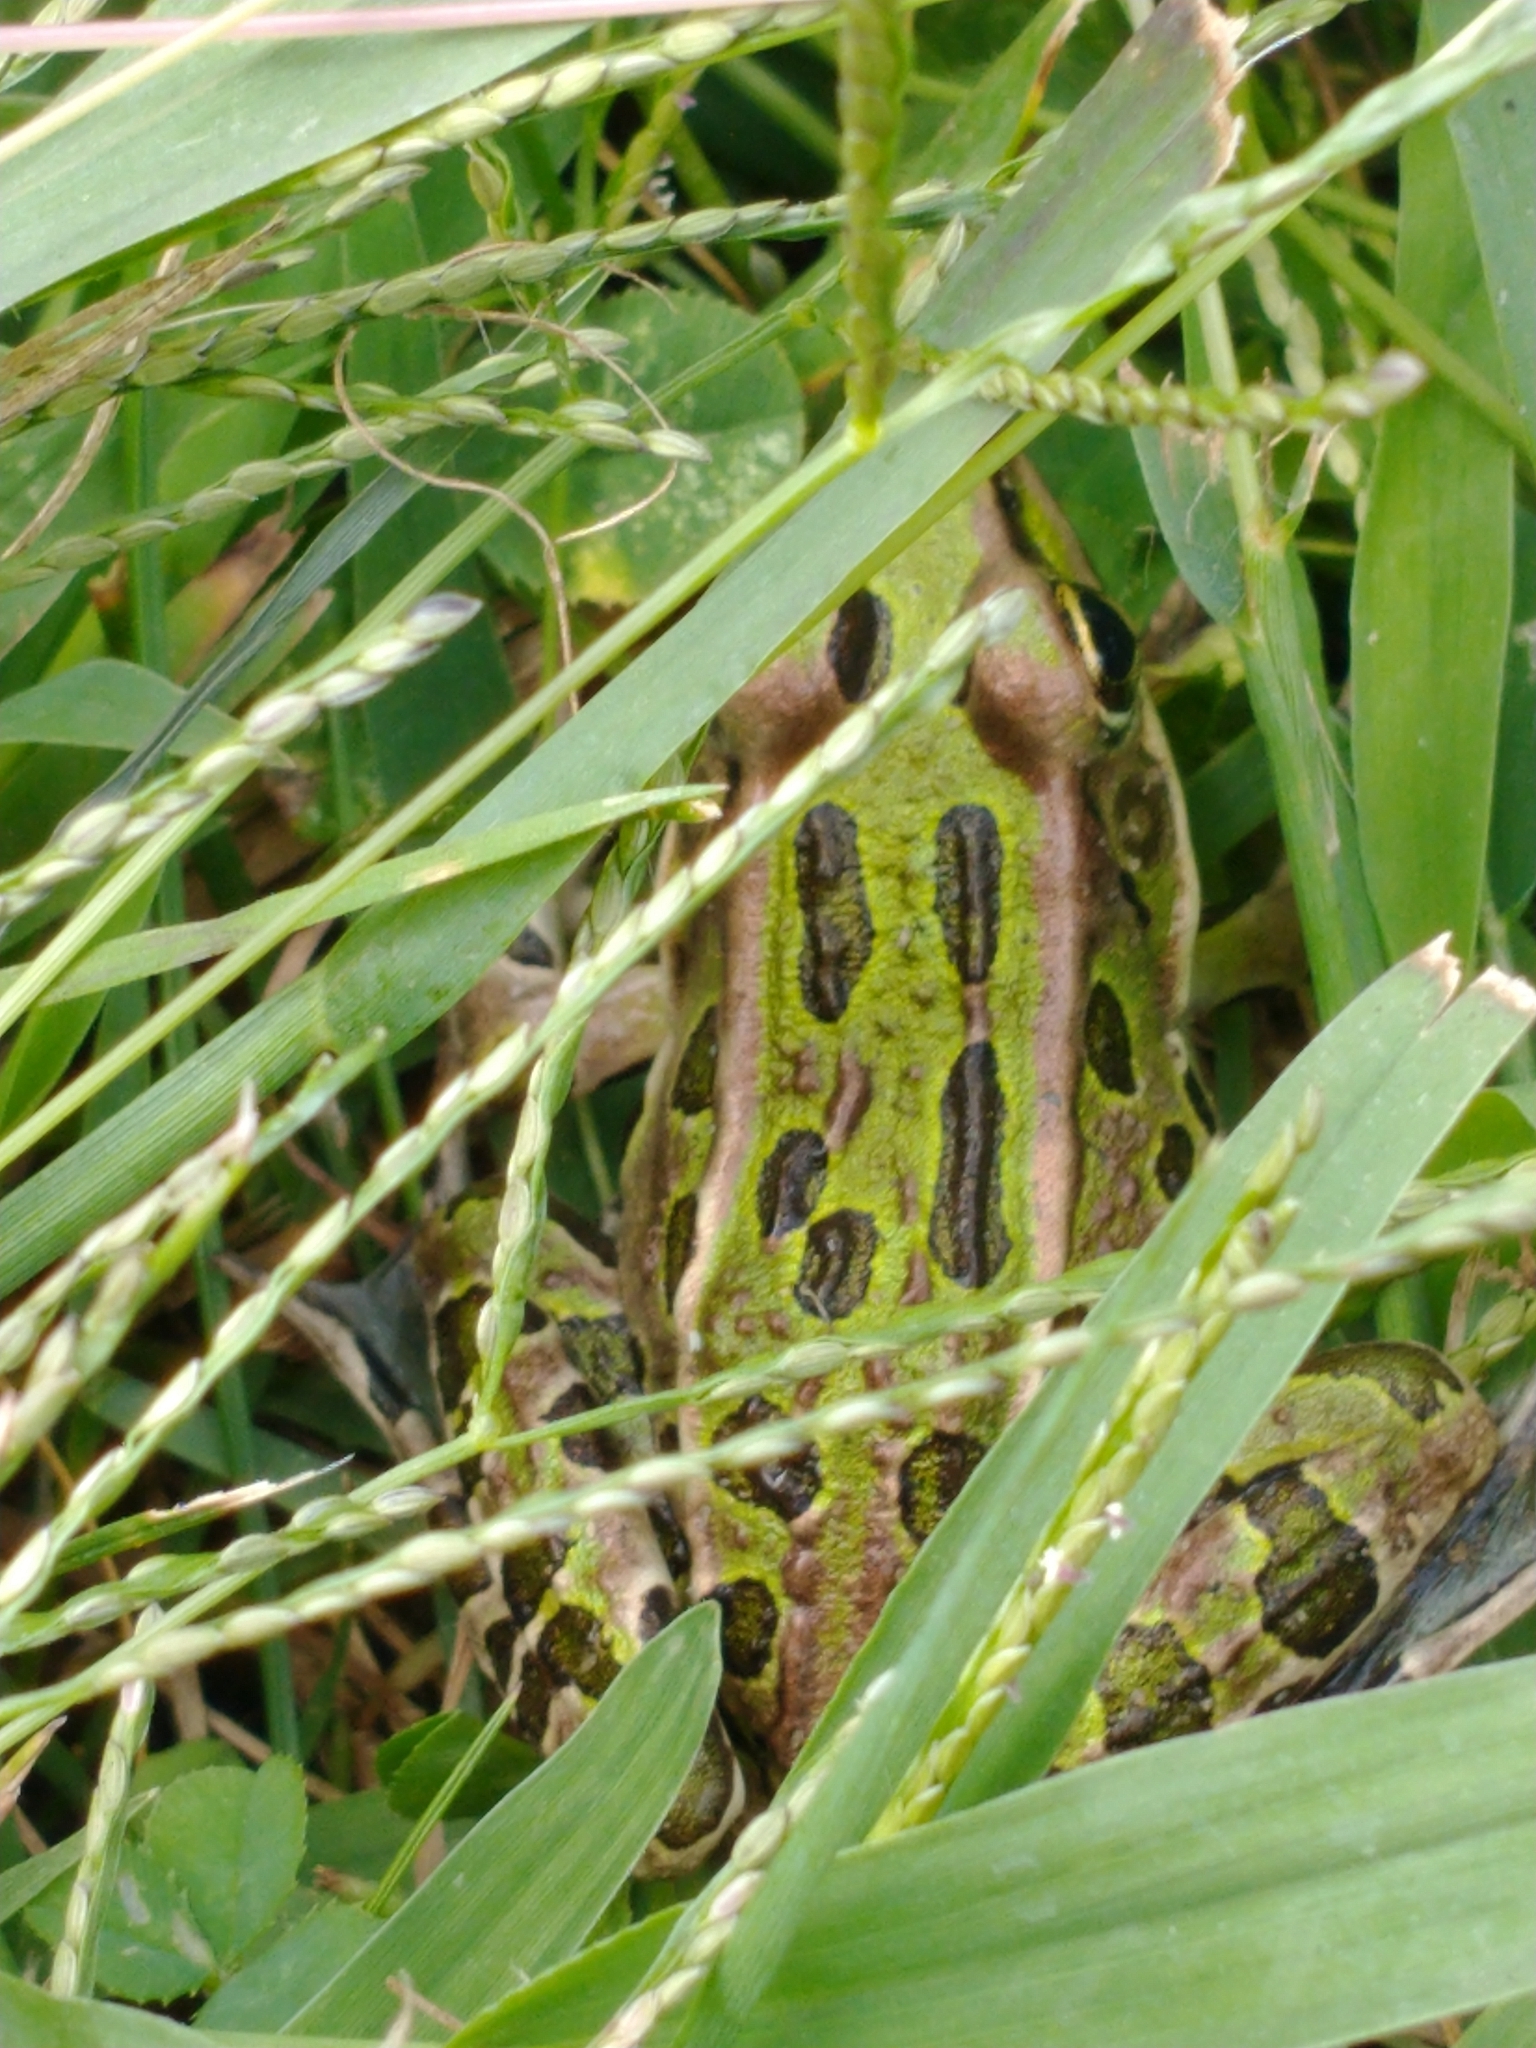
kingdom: Animalia
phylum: Chordata
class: Amphibia
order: Anura
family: Ranidae
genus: Lithobates
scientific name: Lithobates pipiens
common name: Northern leopard frog
